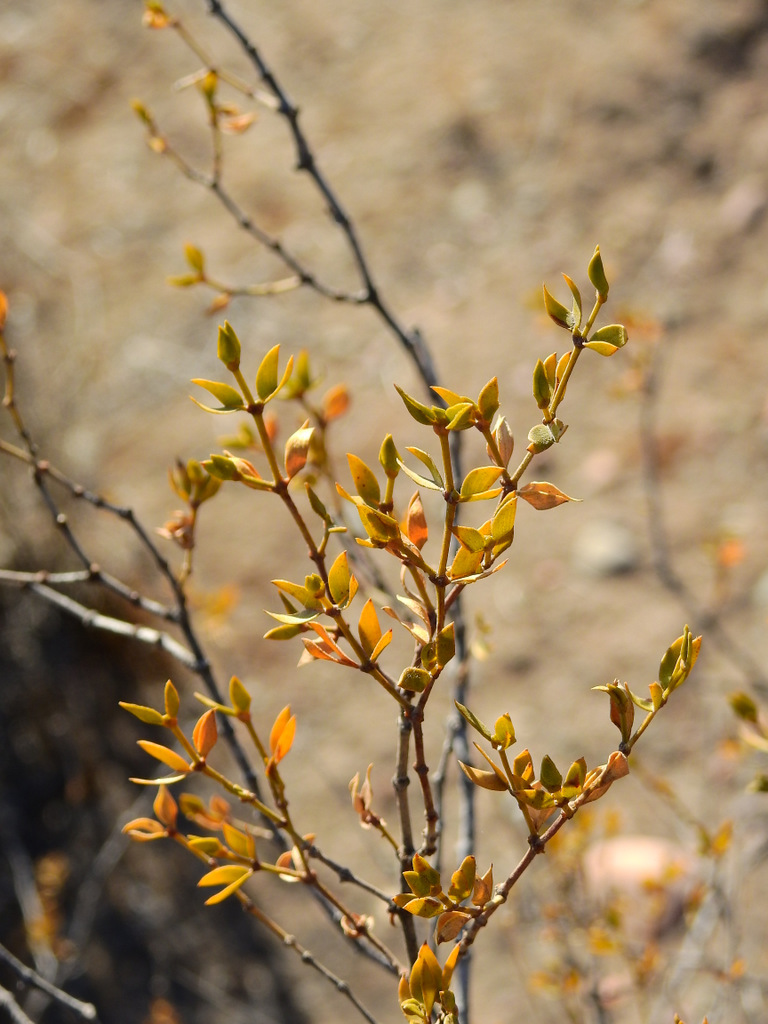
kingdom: Plantae
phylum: Tracheophyta
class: Magnoliopsida
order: Zygophyllales
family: Zygophyllaceae
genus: Larrea
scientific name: Larrea divaricata
